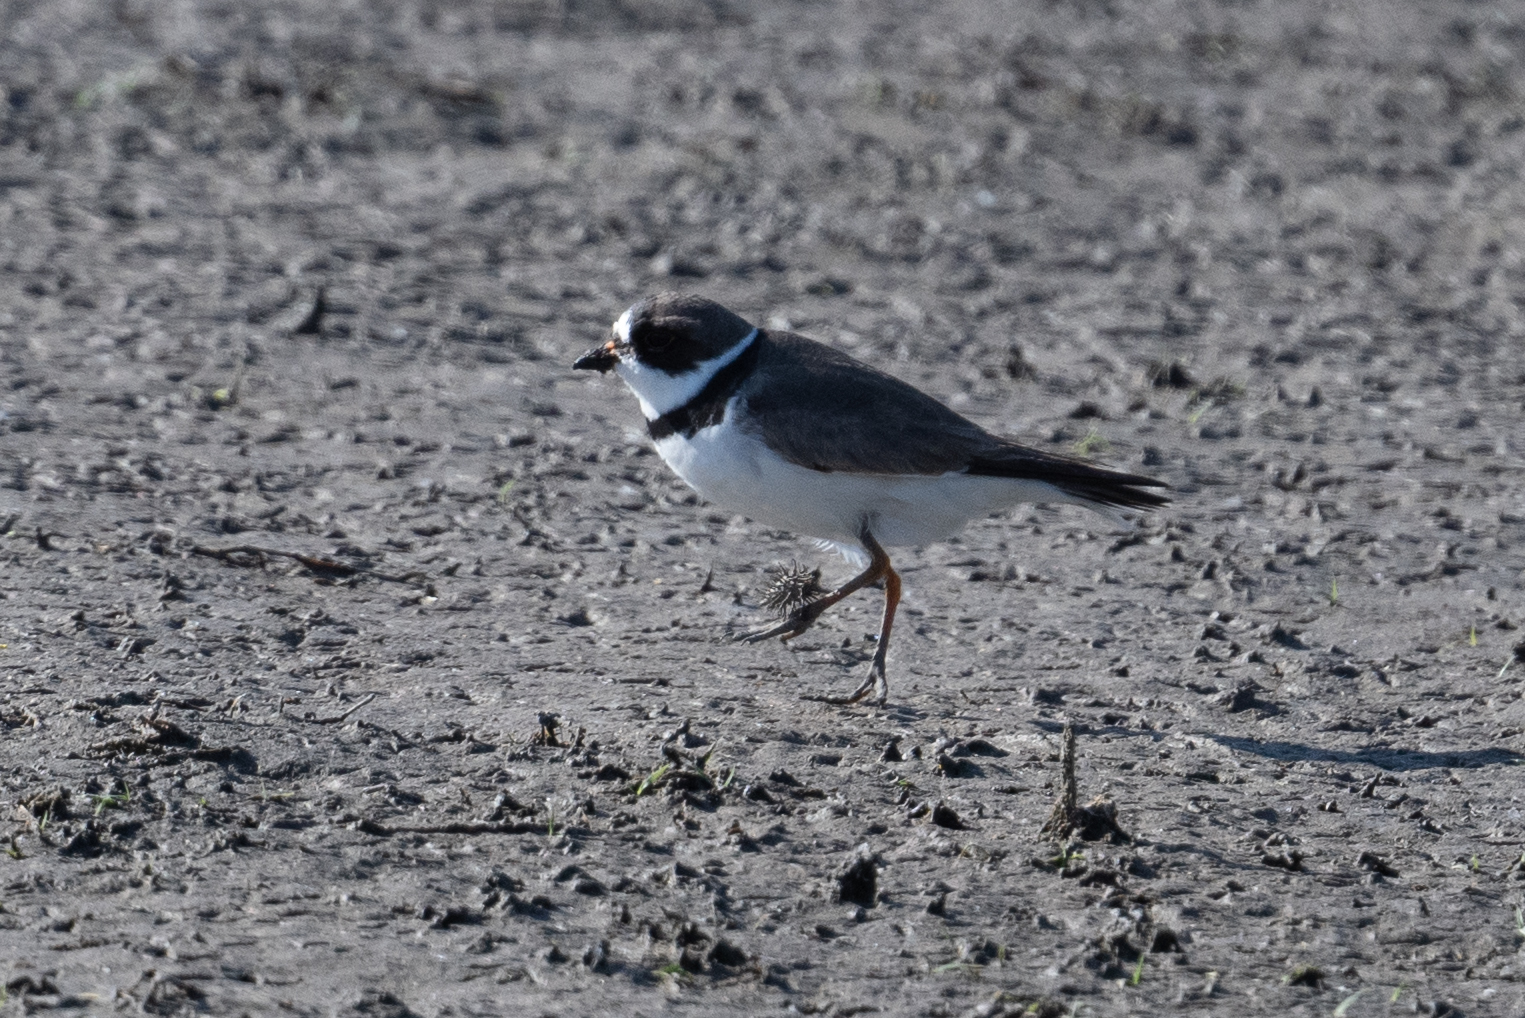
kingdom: Animalia
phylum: Chordata
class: Aves
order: Charadriiformes
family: Charadriidae
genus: Charadrius
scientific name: Charadrius semipalmatus
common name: Semipalmated plover
